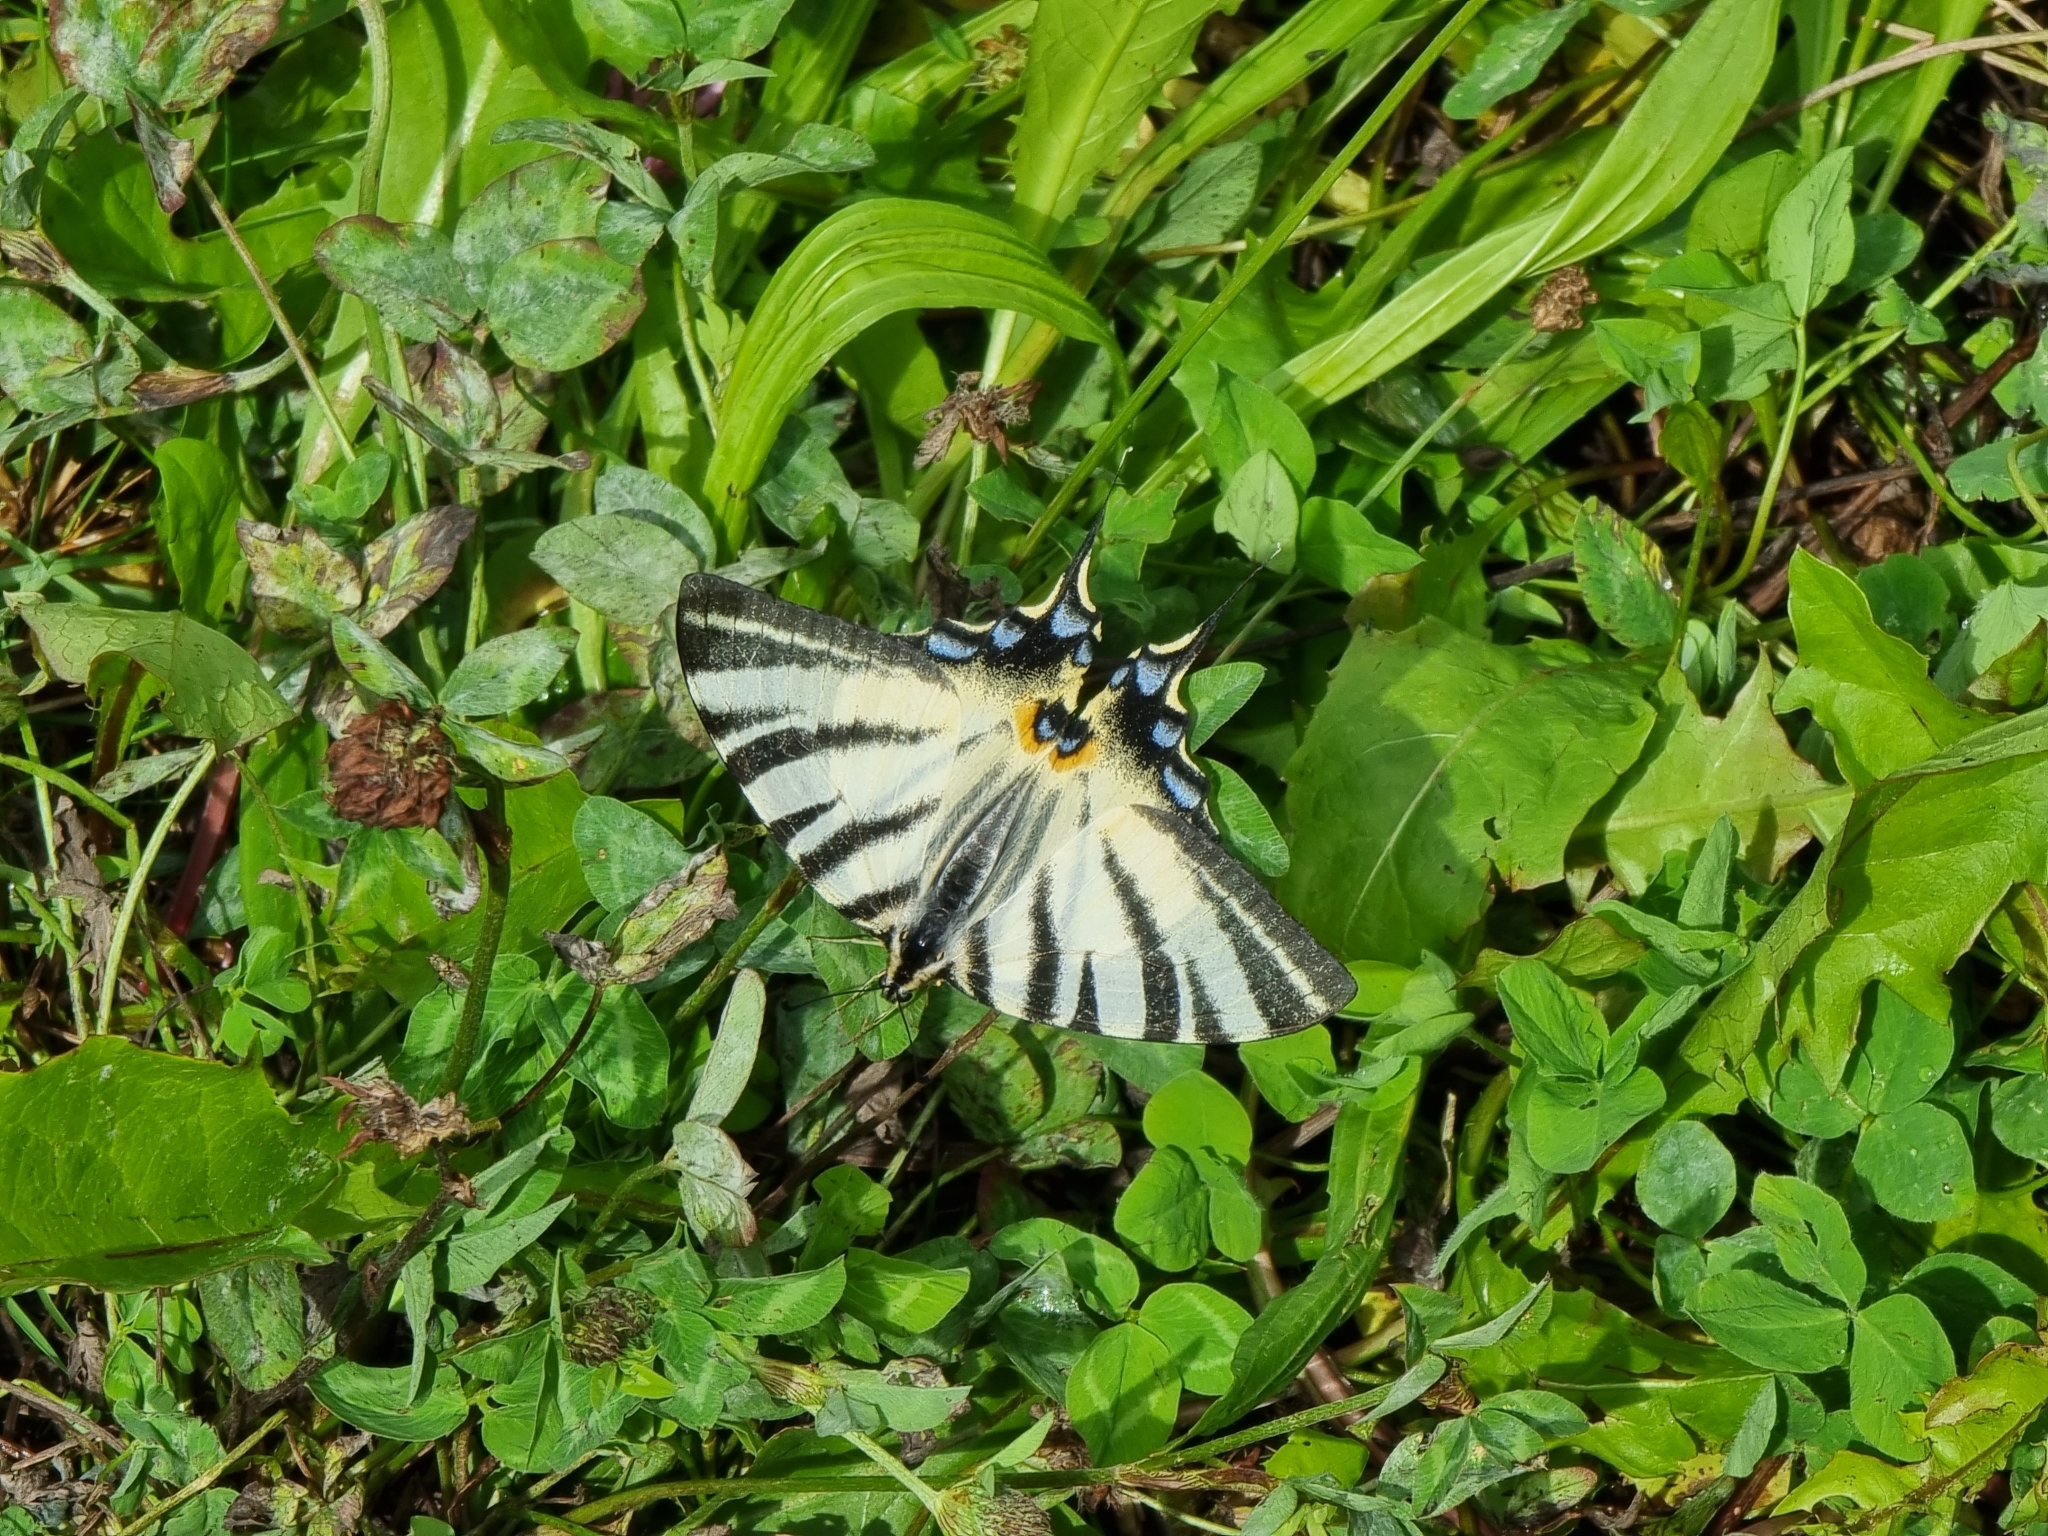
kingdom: Animalia
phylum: Arthropoda
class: Insecta
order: Lepidoptera
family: Papilionidae
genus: Iphiclides
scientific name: Iphiclides podalirius
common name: Scarce swallowtail
